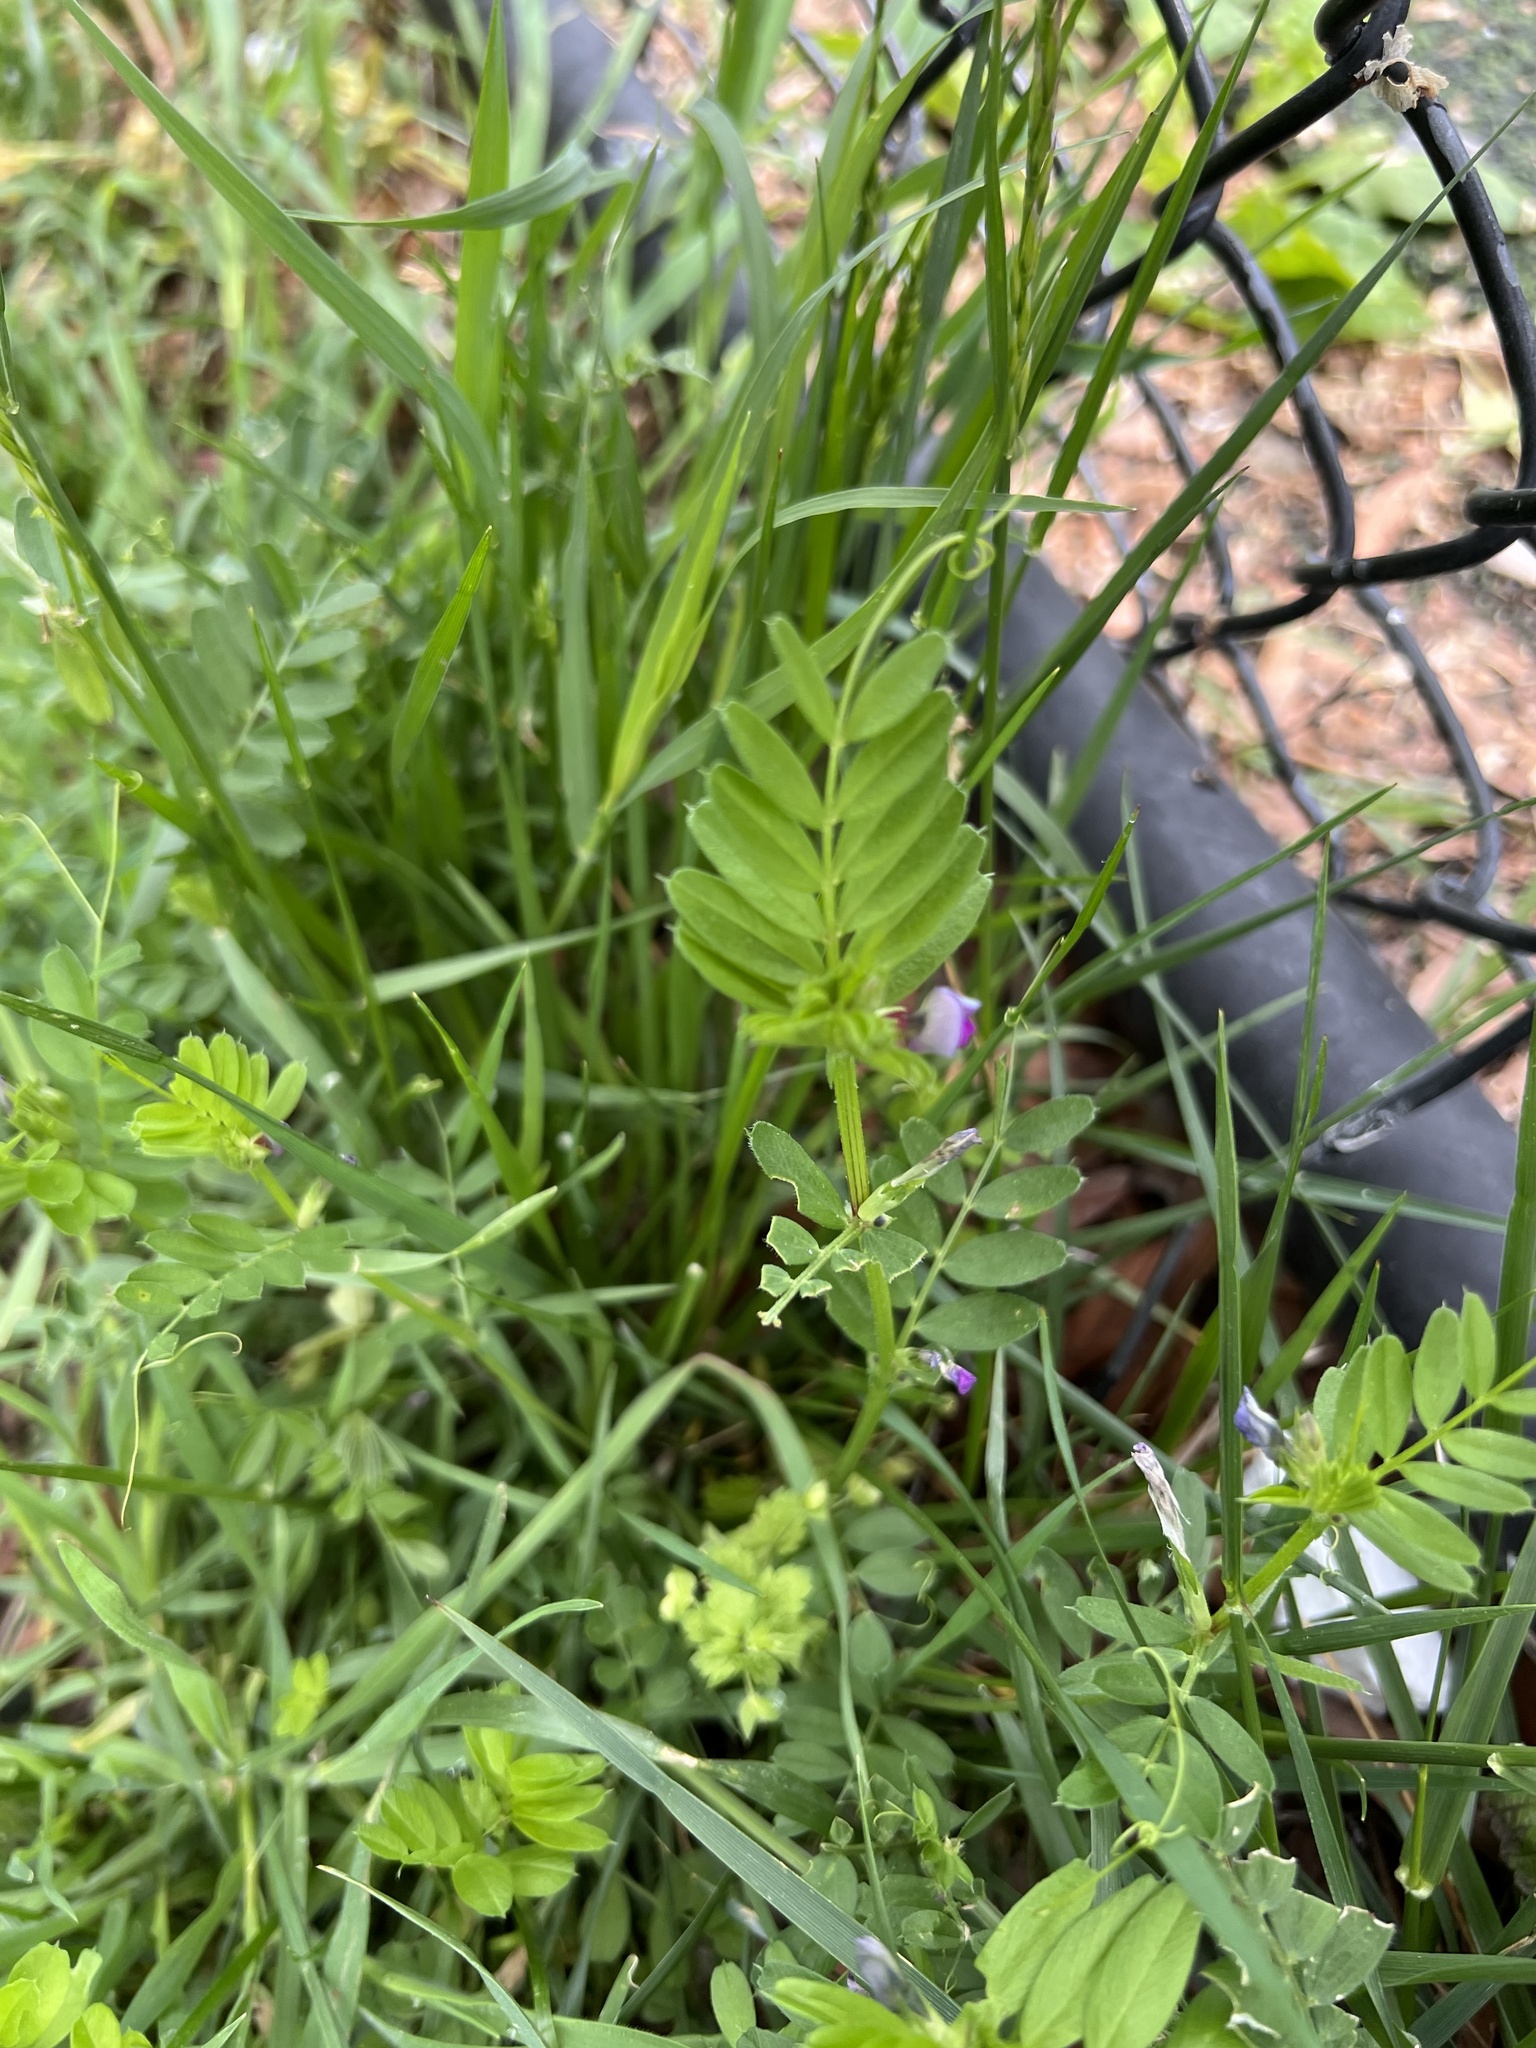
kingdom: Plantae
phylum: Tracheophyta
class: Magnoliopsida
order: Fabales
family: Fabaceae
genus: Vicia
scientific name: Vicia sativa
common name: Garden vetch
